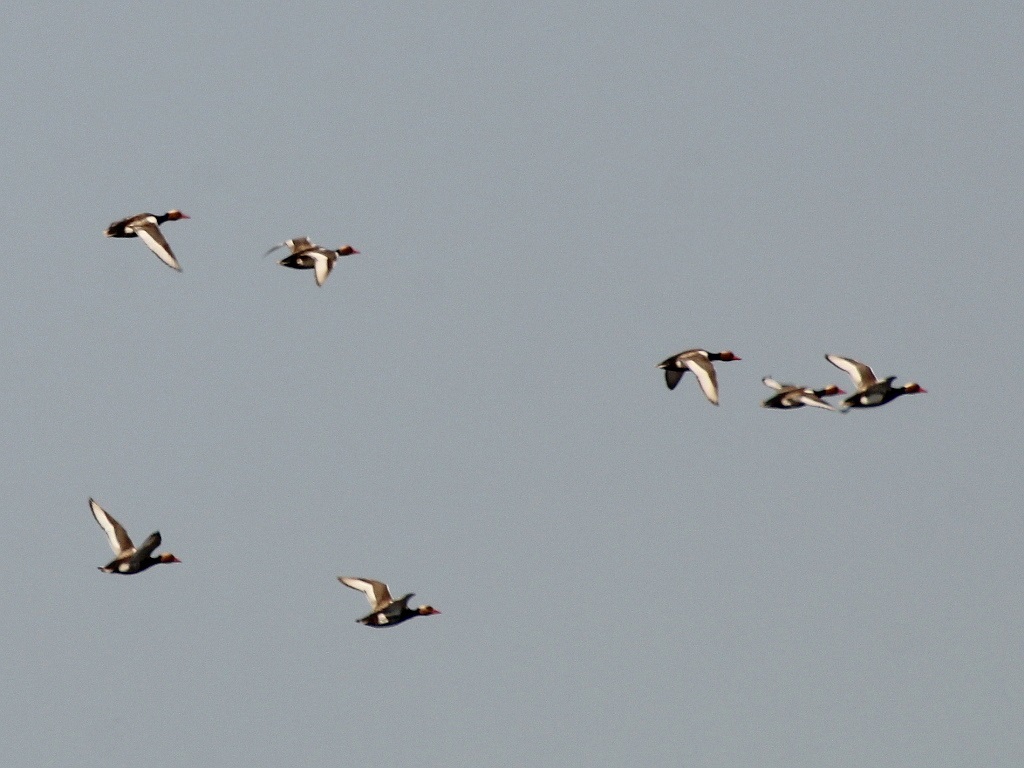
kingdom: Animalia
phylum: Chordata
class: Aves
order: Anseriformes
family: Anatidae
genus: Netta
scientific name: Netta rufina
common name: Red-crested pochard
